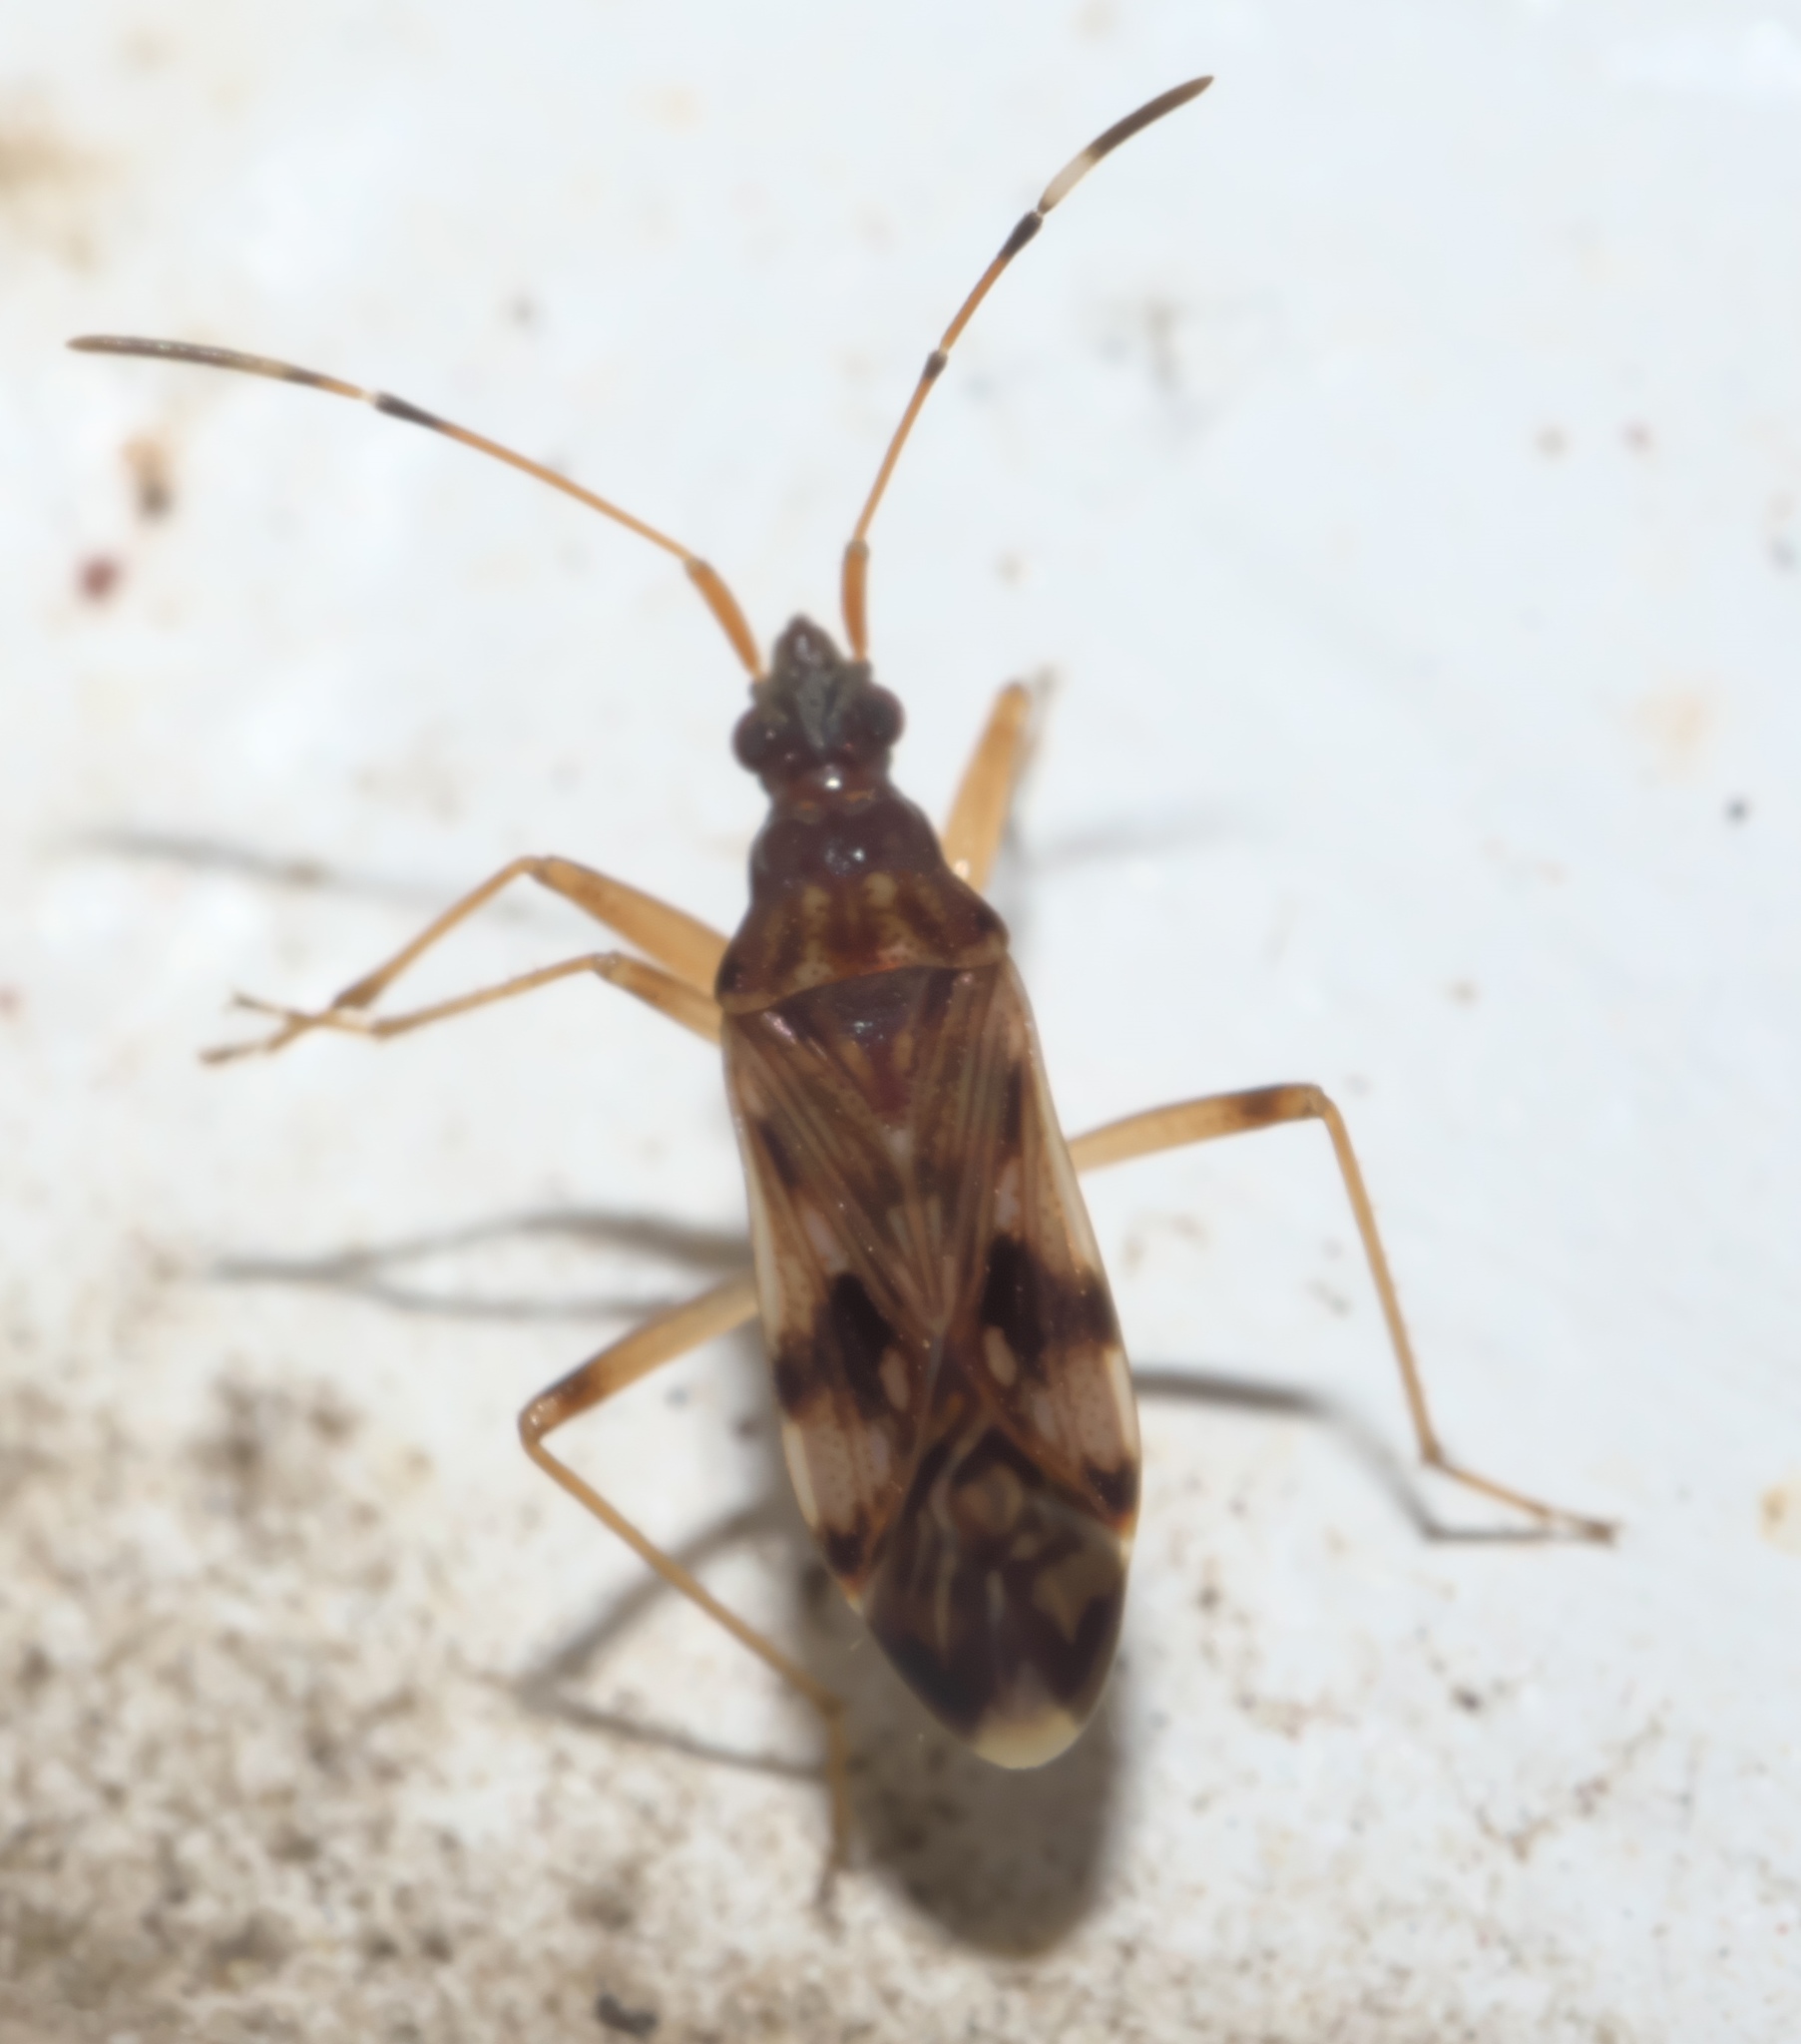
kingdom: Animalia
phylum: Arthropoda
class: Insecta
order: Hemiptera
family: Rhyparochromidae
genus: Ozophora
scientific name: Ozophora picturata
